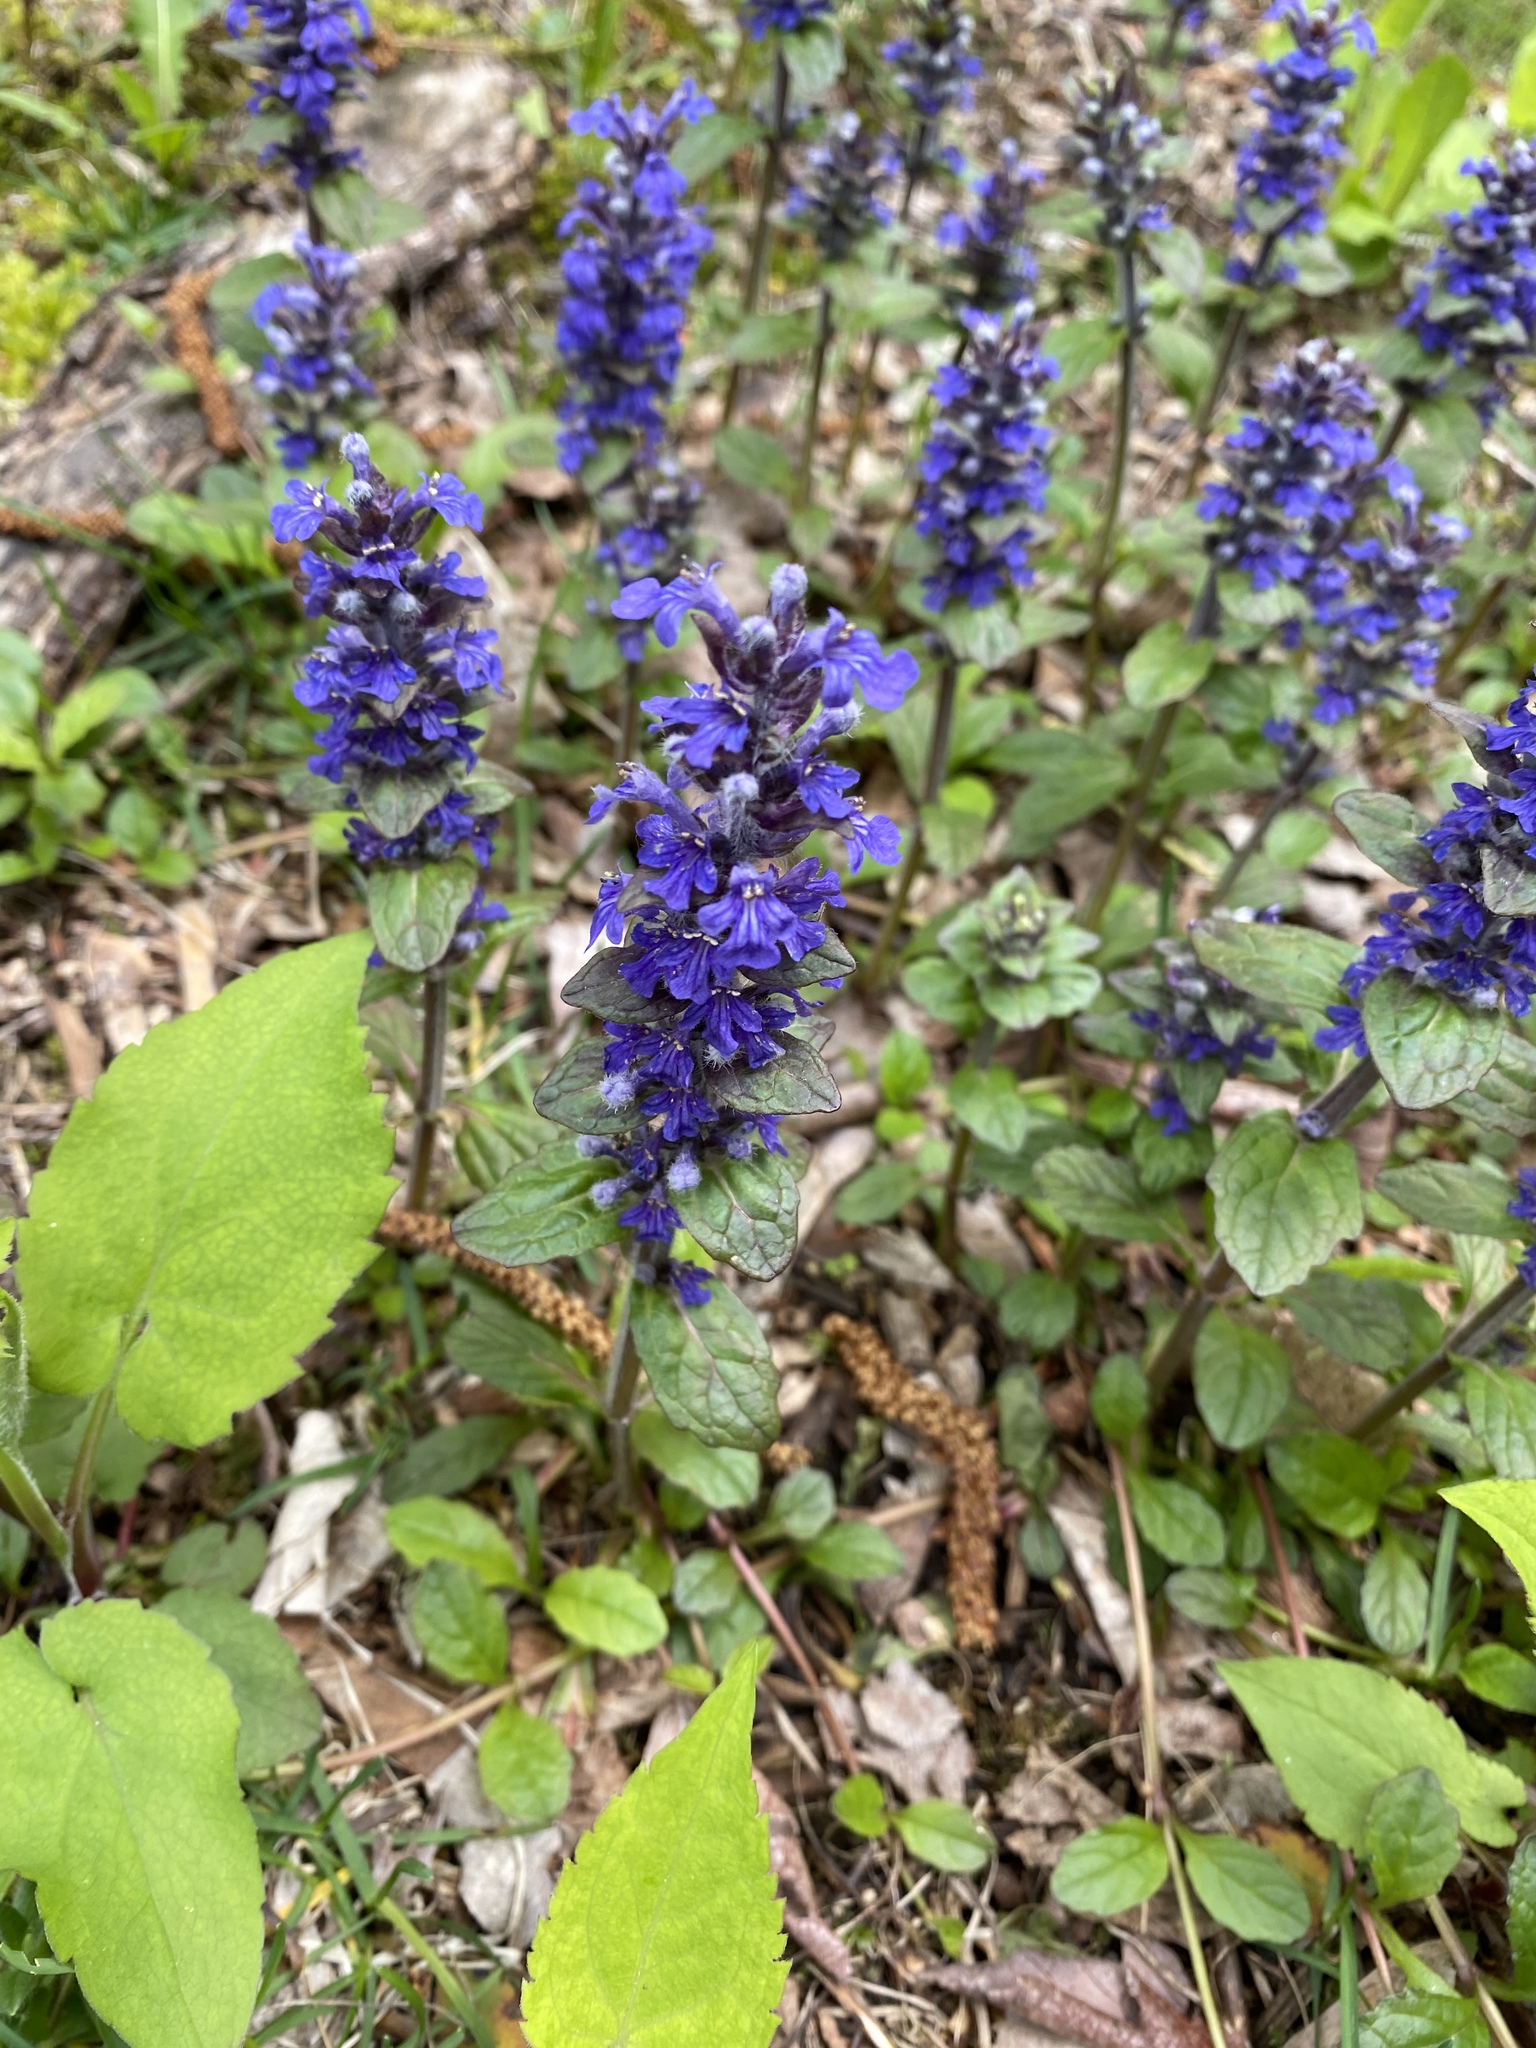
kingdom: Plantae
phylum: Tracheophyta
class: Magnoliopsida
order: Lamiales
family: Lamiaceae
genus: Ajuga
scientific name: Ajuga reptans
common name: Bugle
